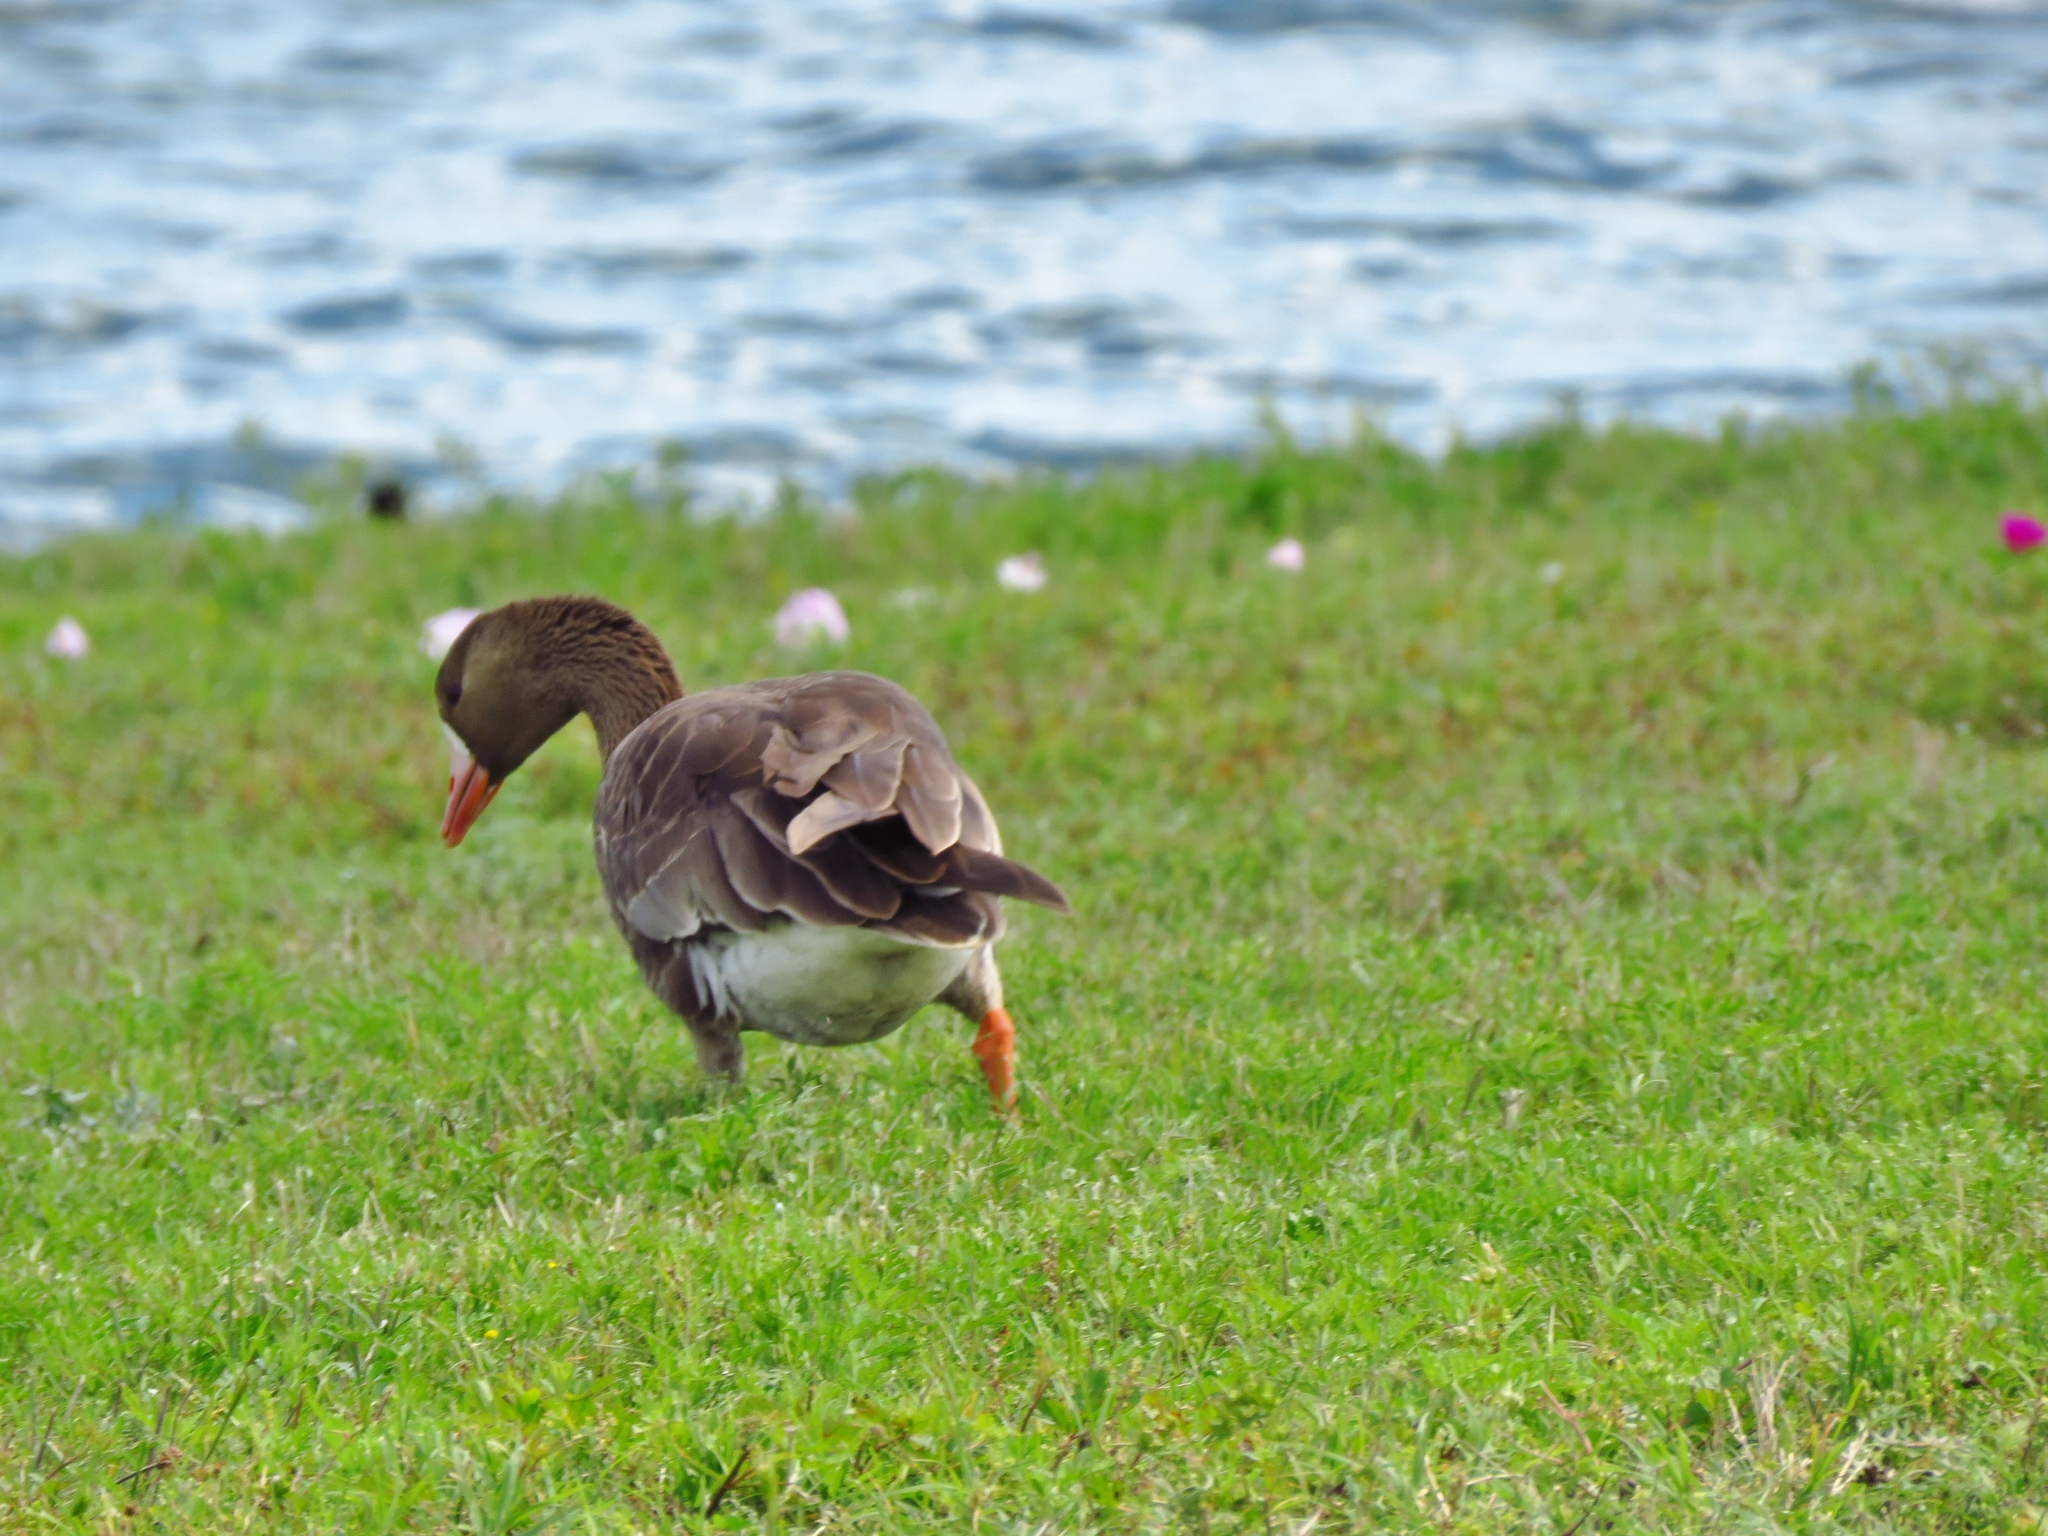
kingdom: Animalia
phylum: Chordata
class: Aves
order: Anseriformes
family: Anatidae
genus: Anser
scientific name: Anser albifrons
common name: Greater white-fronted goose
